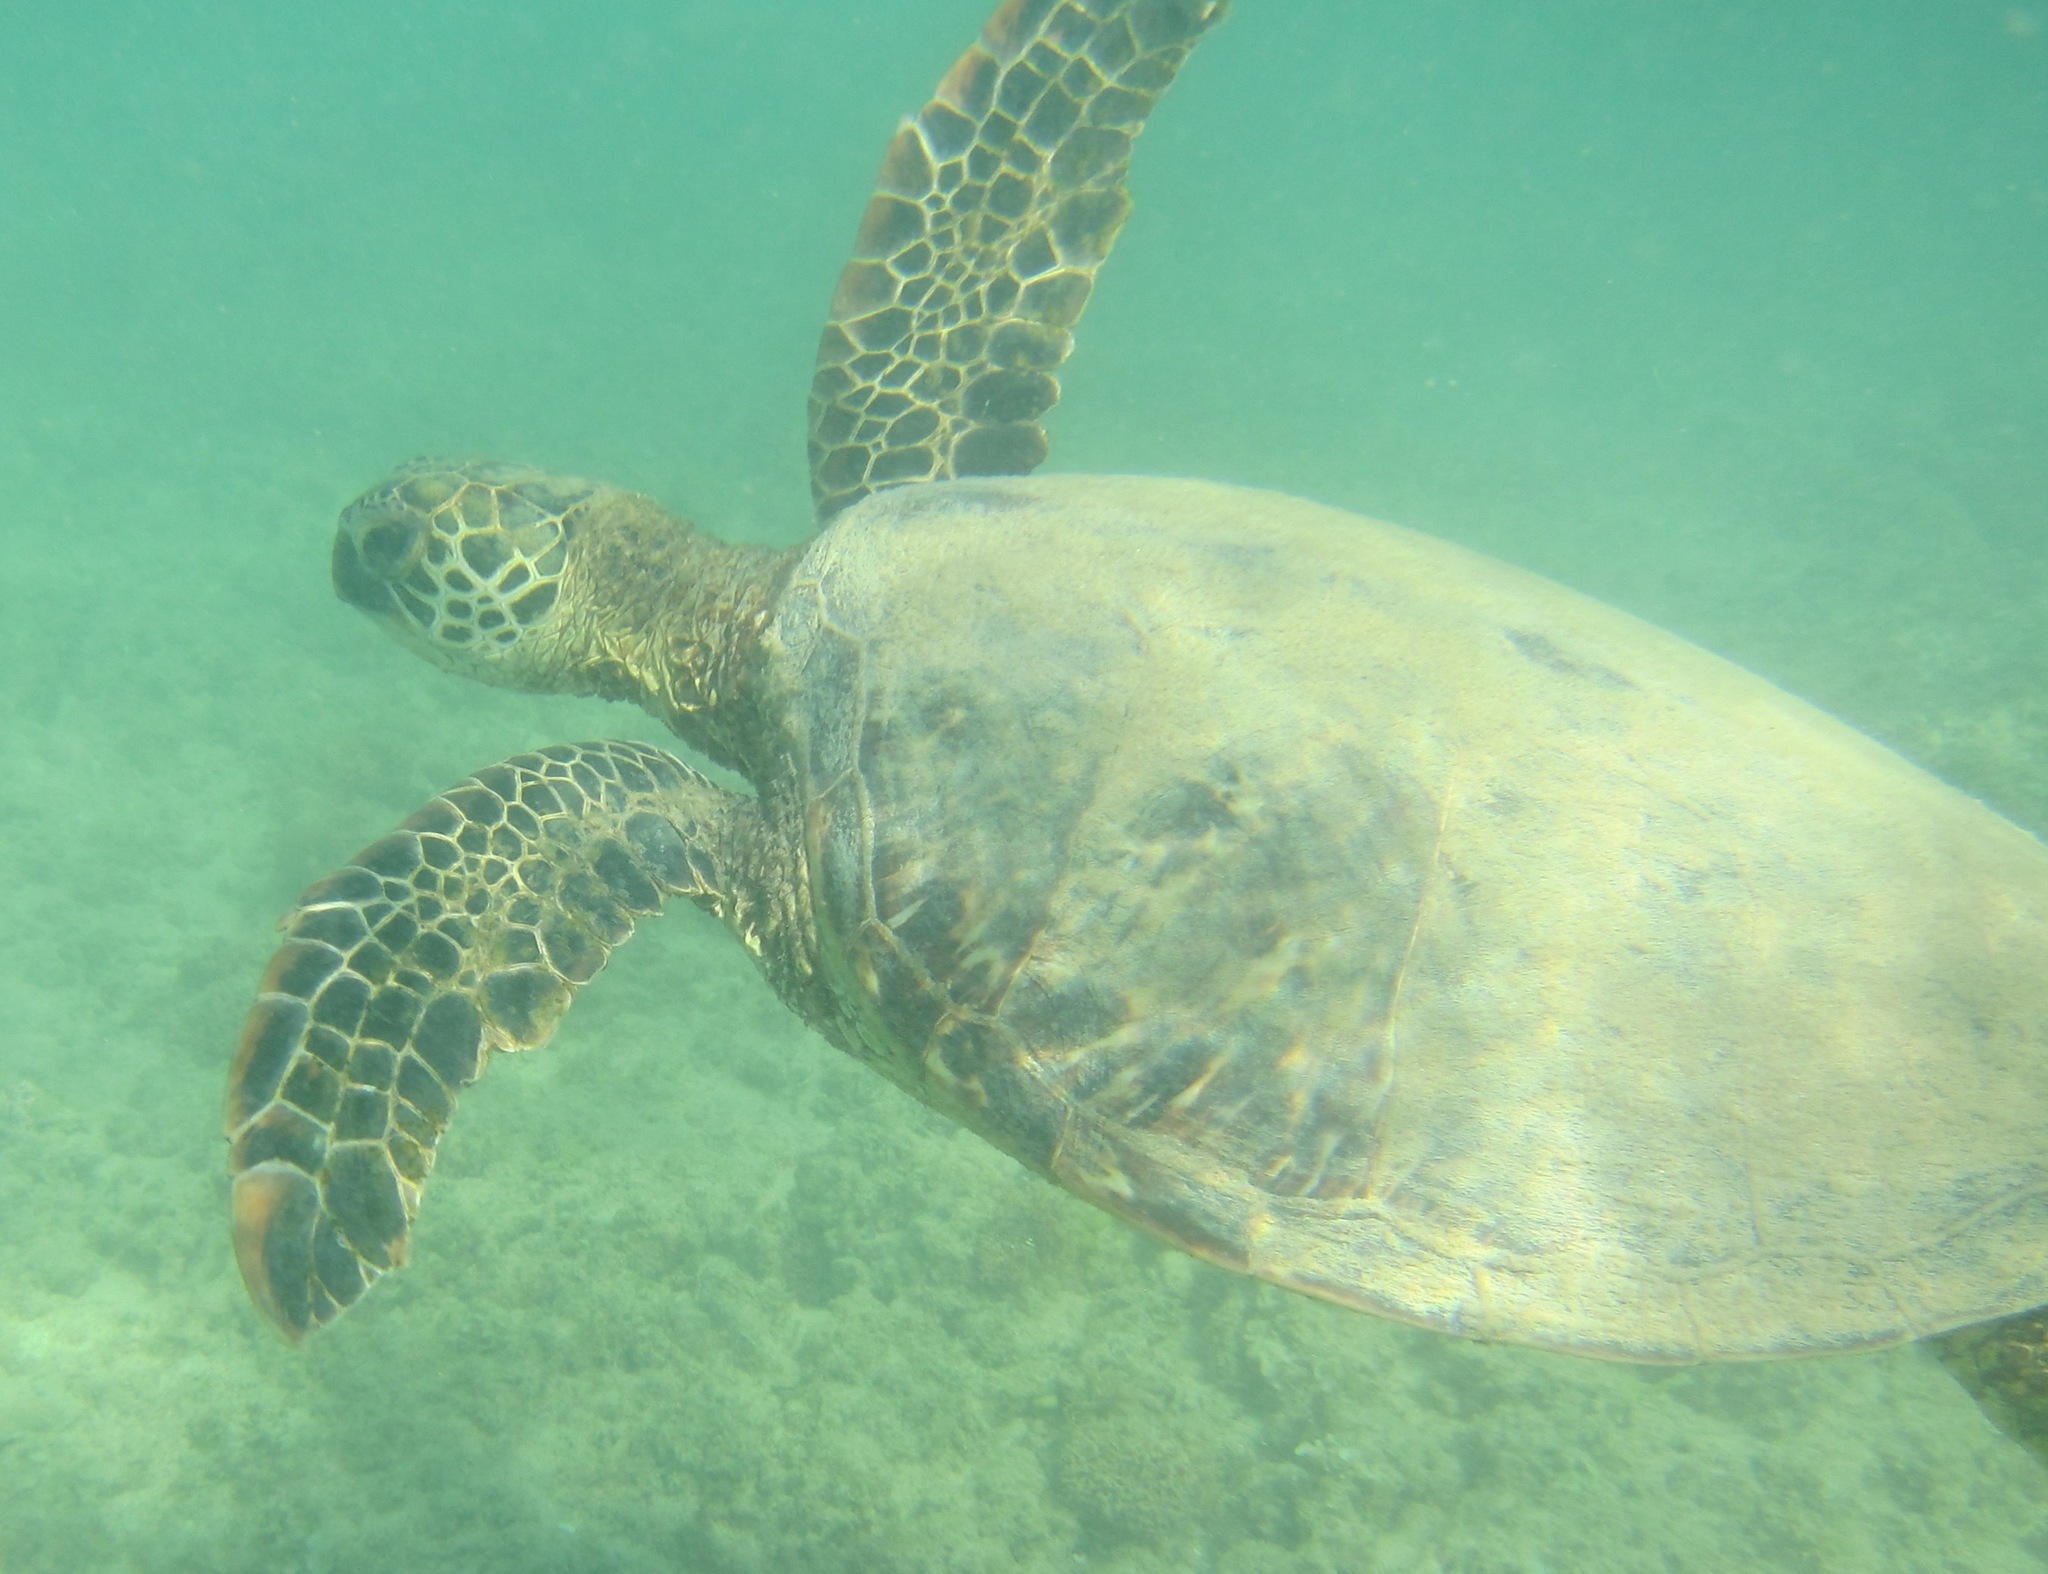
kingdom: Animalia
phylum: Chordata
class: Testudines
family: Cheloniidae
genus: Chelonia
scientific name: Chelonia mydas
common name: Green turtle
